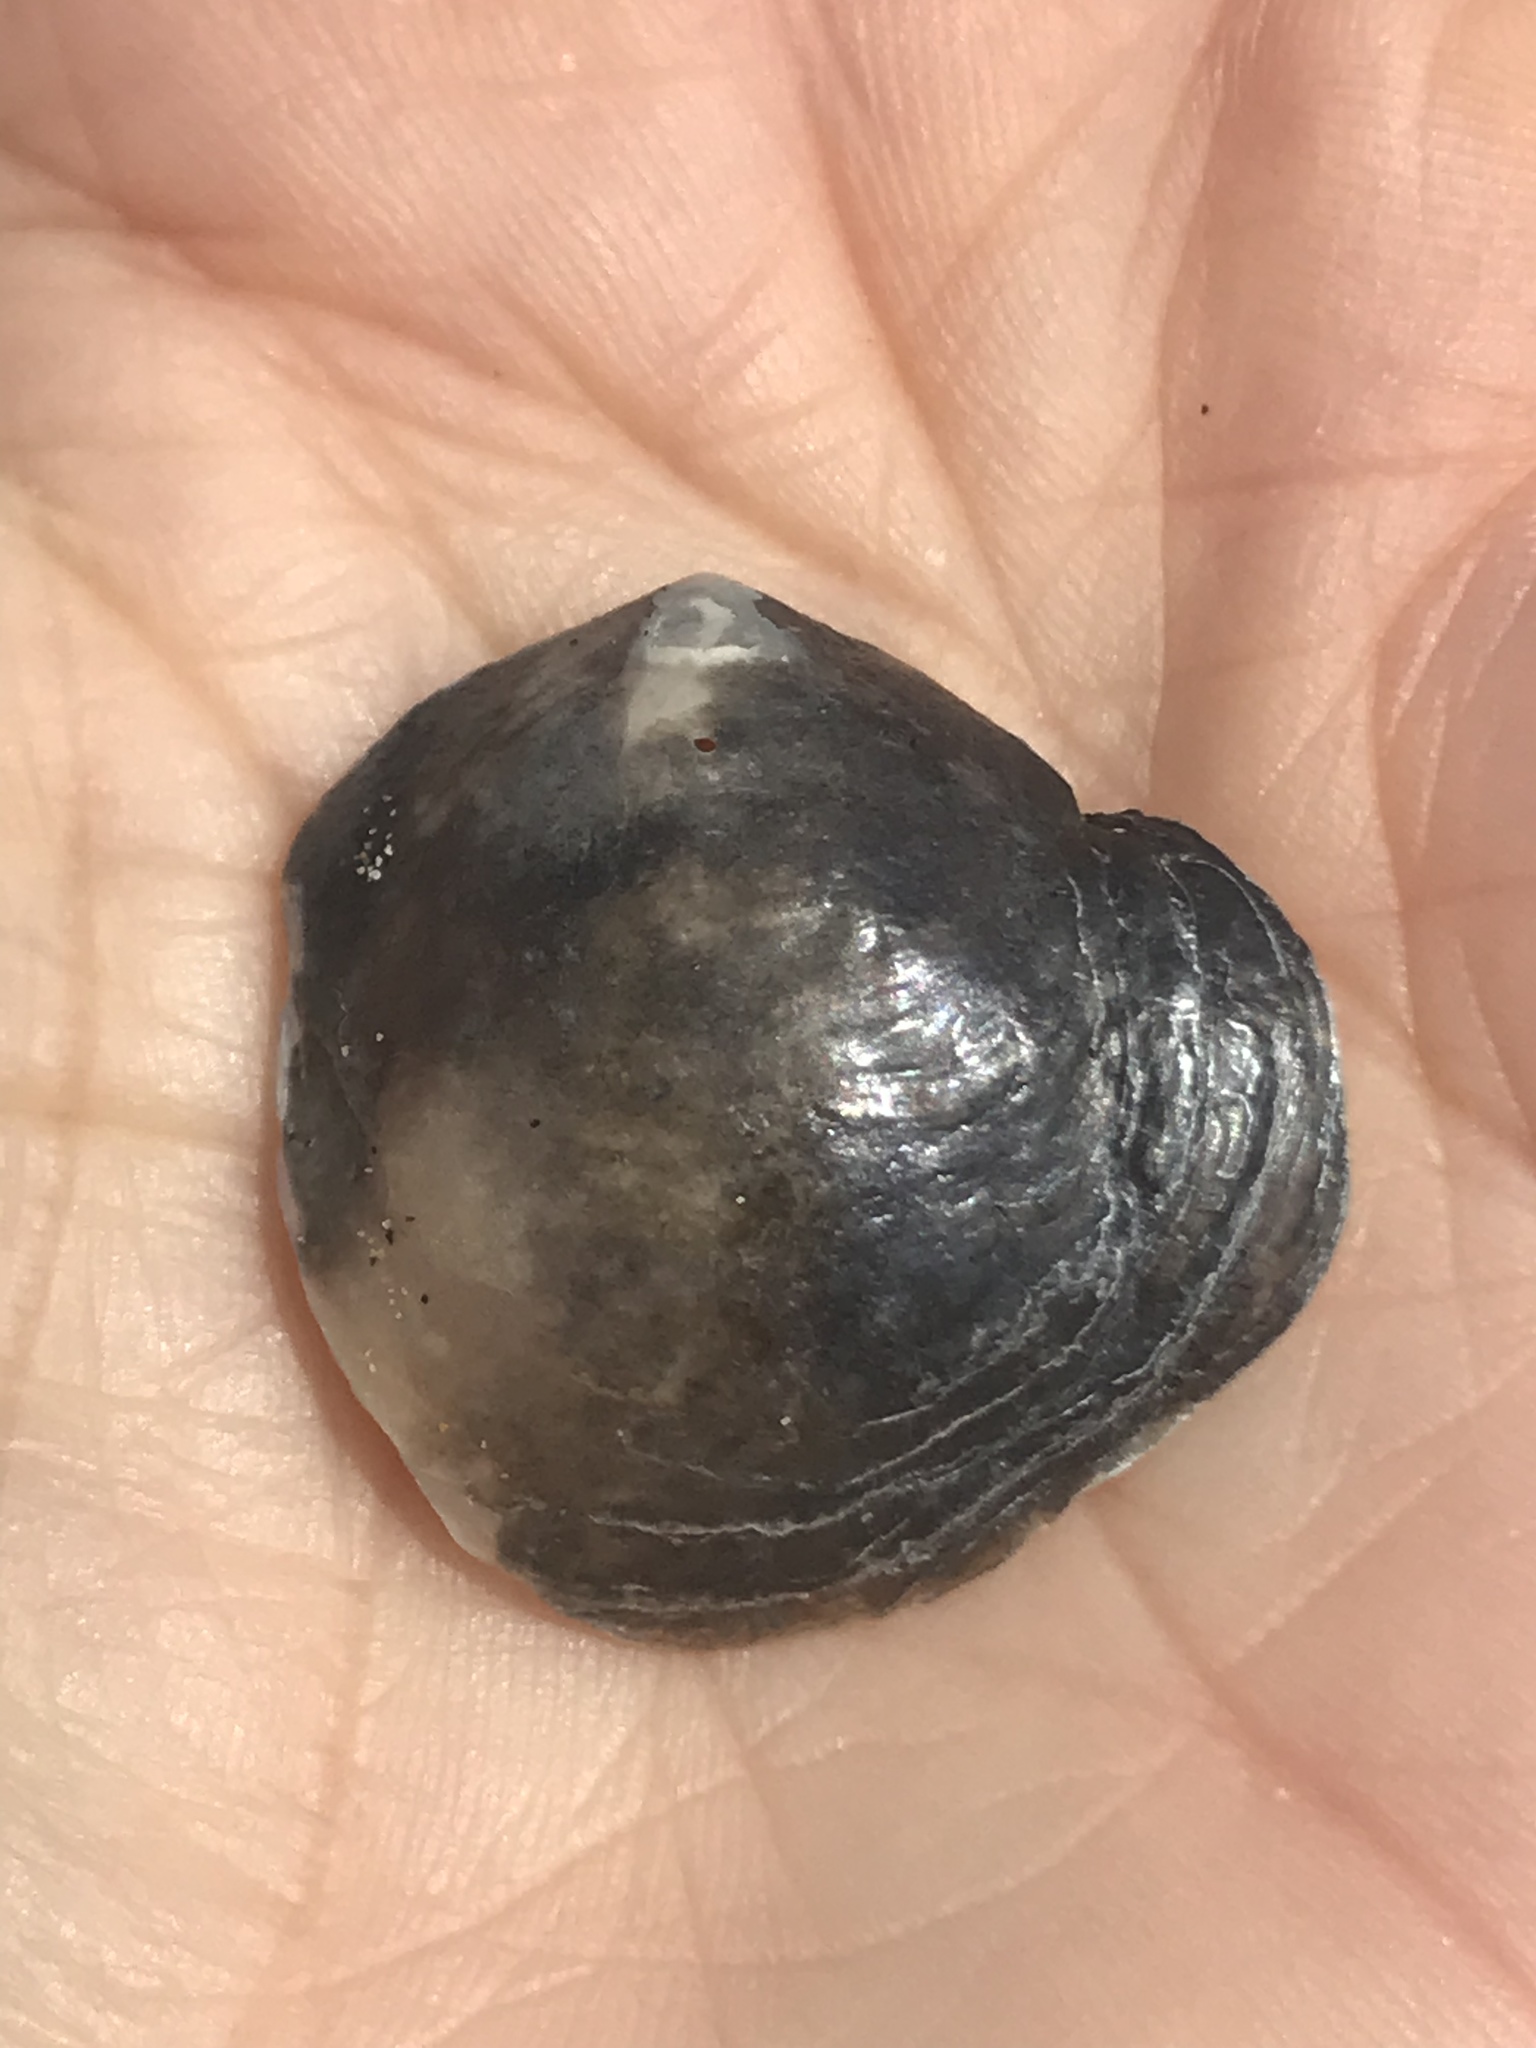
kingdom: Animalia
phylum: Mollusca
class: Bivalvia
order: Pectinida
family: Anomiidae
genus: Anomia
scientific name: Anomia peruviana
